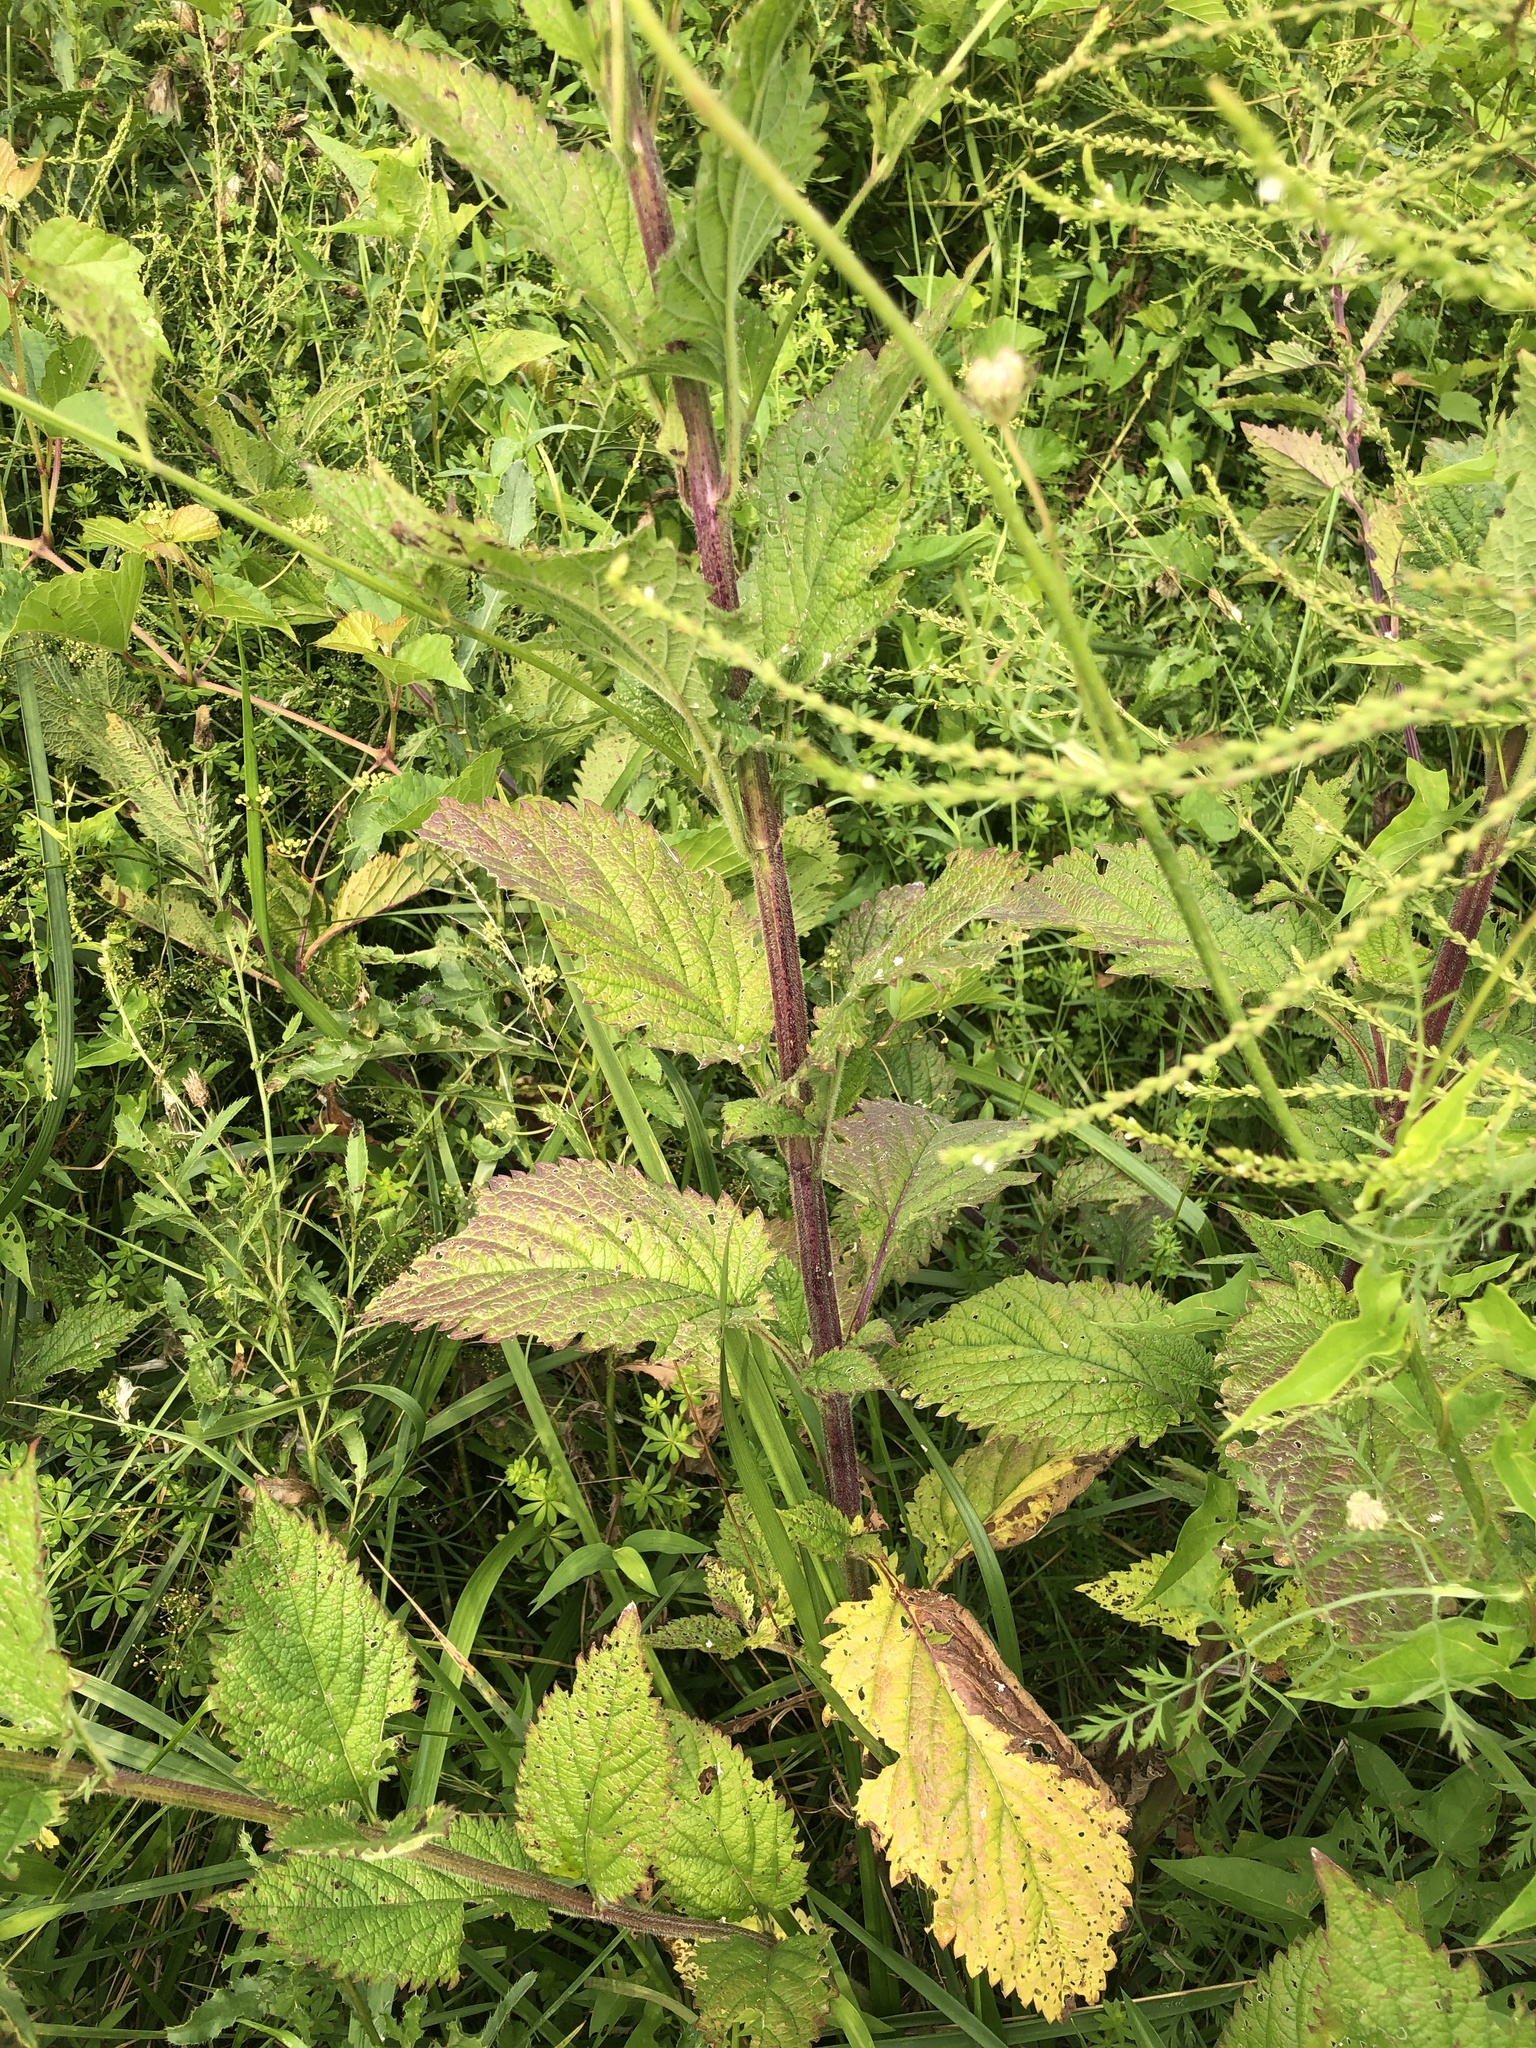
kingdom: Plantae
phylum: Tracheophyta
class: Magnoliopsida
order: Lamiales
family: Verbenaceae
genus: Verbena
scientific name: Verbena urticifolia
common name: Nettle-leaved vervain
